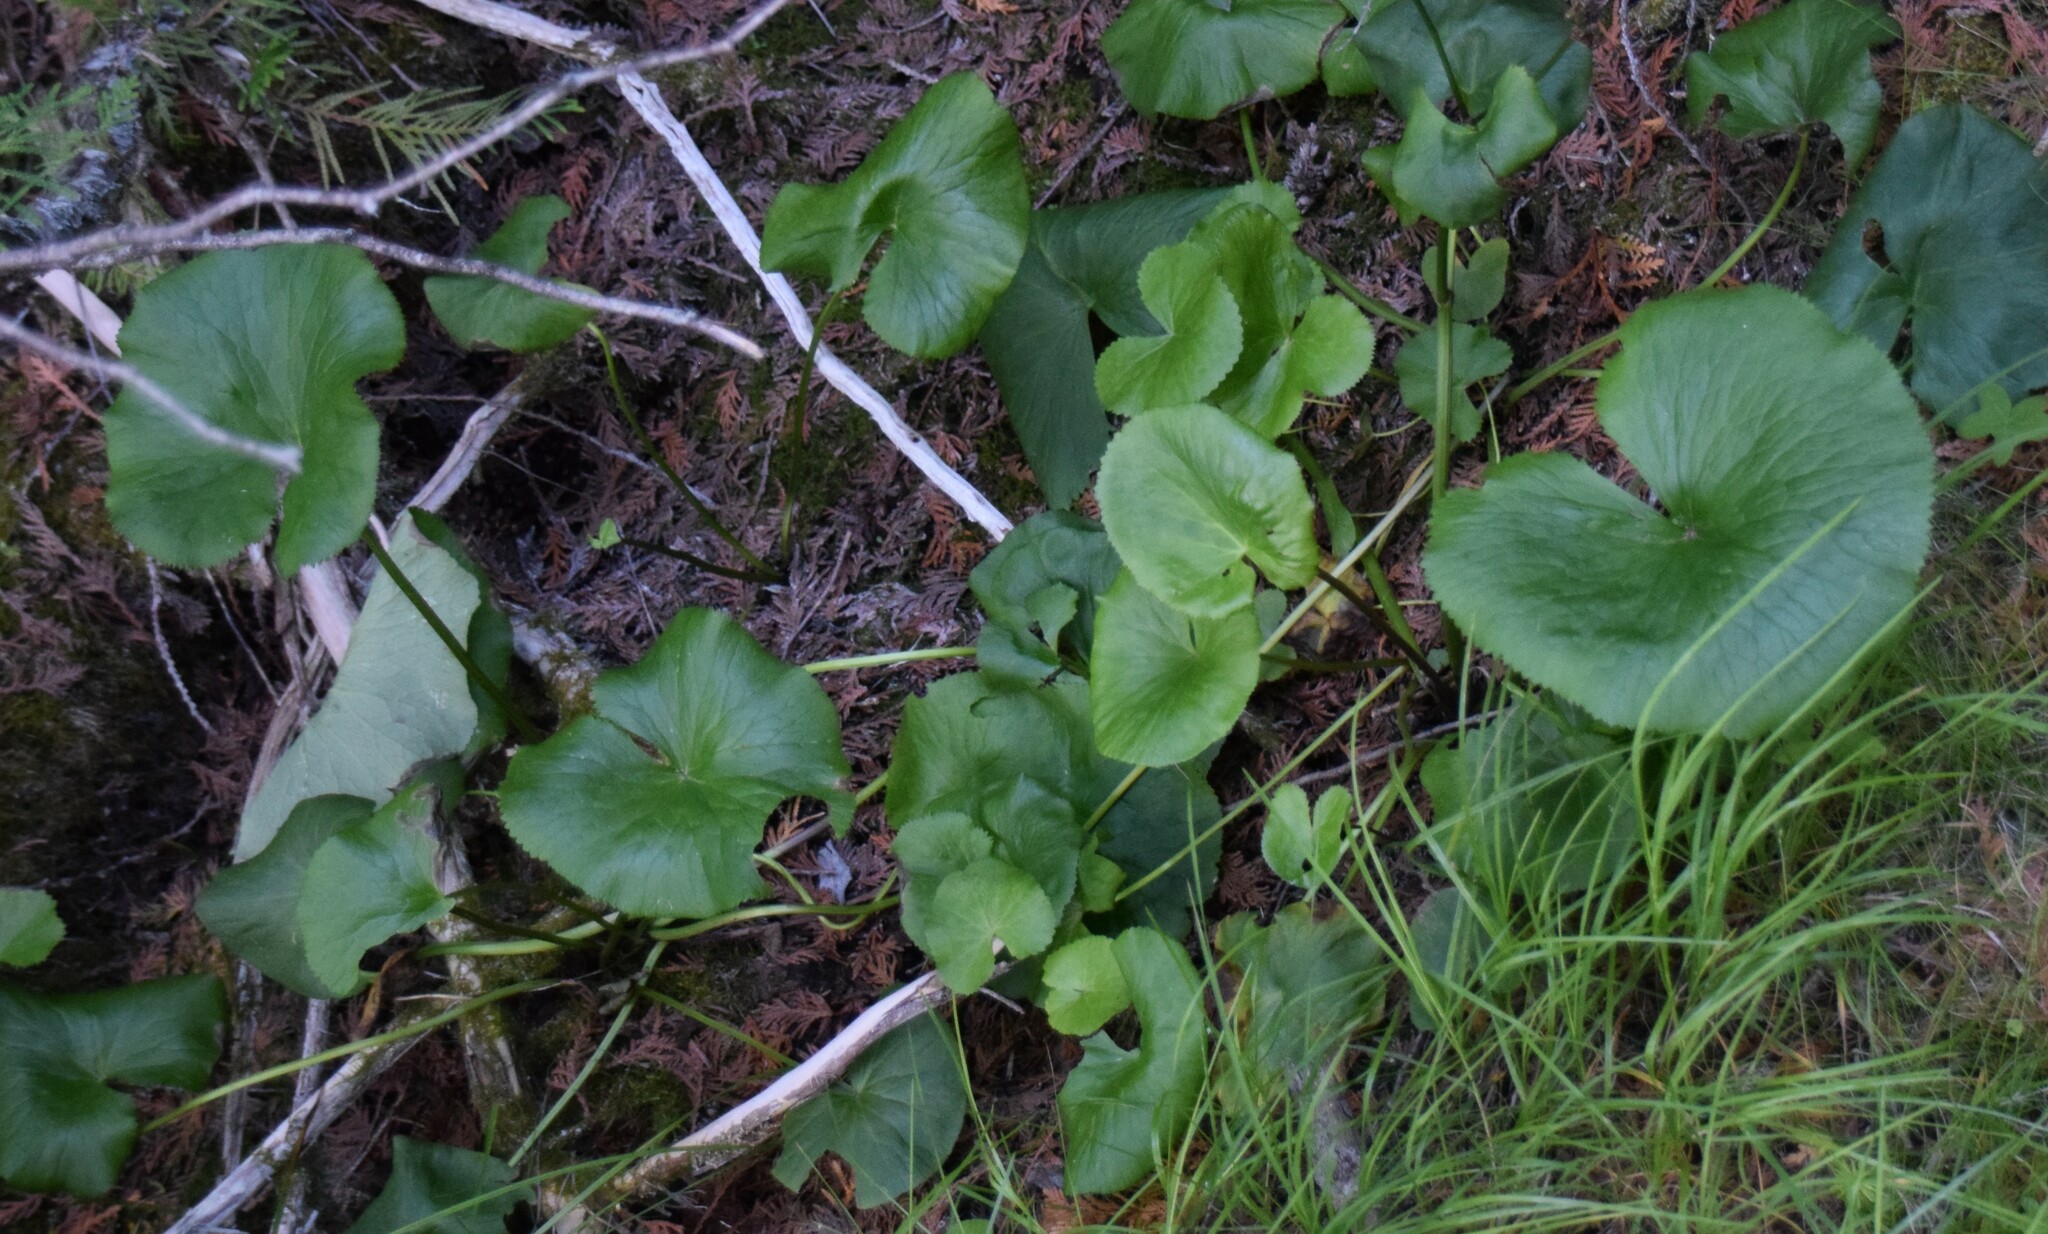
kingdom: Plantae
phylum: Tracheophyta
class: Magnoliopsida
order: Ranunculales
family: Ranunculaceae
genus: Caltha
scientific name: Caltha palustris
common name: Marsh marigold
